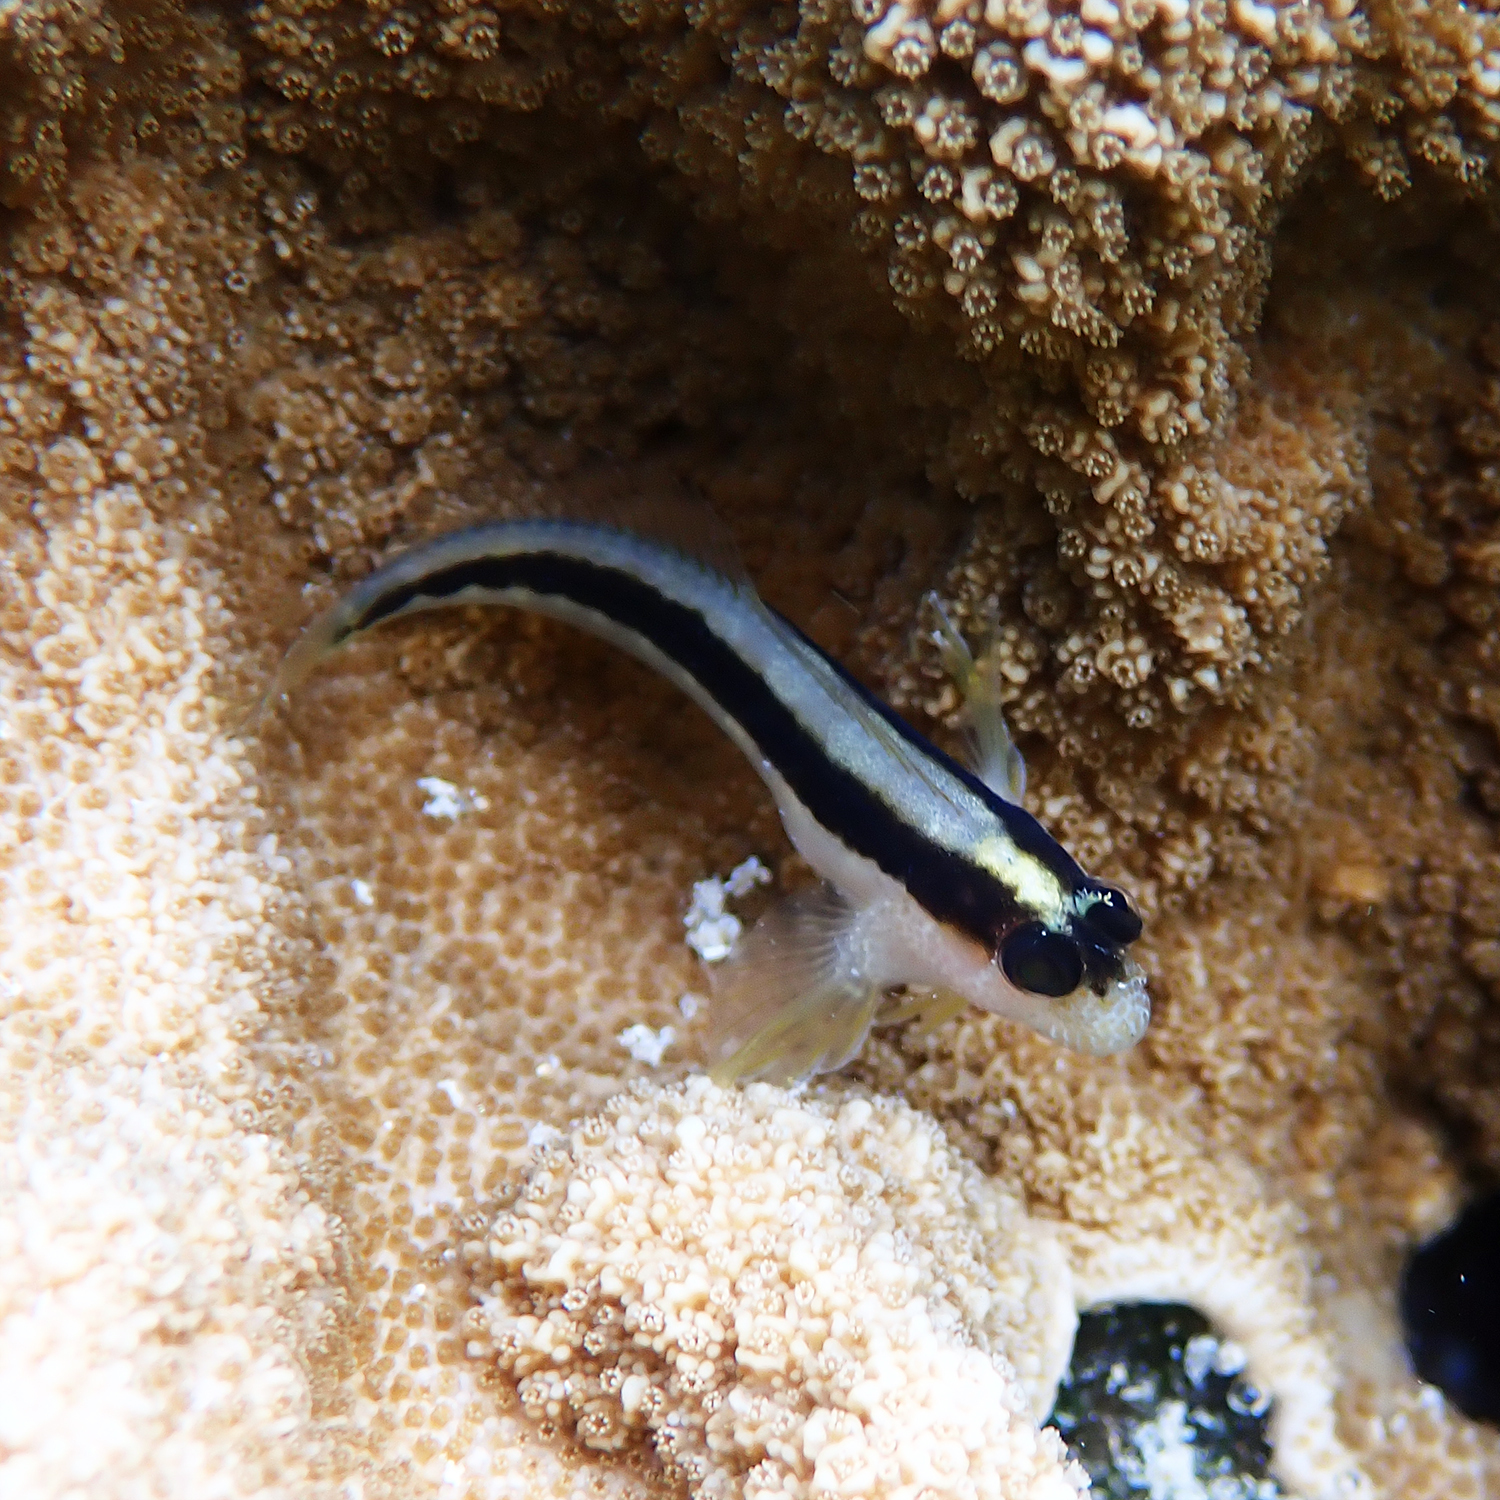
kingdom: Animalia
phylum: Chordata
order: Perciformes
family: Blenniidae
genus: Parablennius
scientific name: Parablennius serratolineatus
